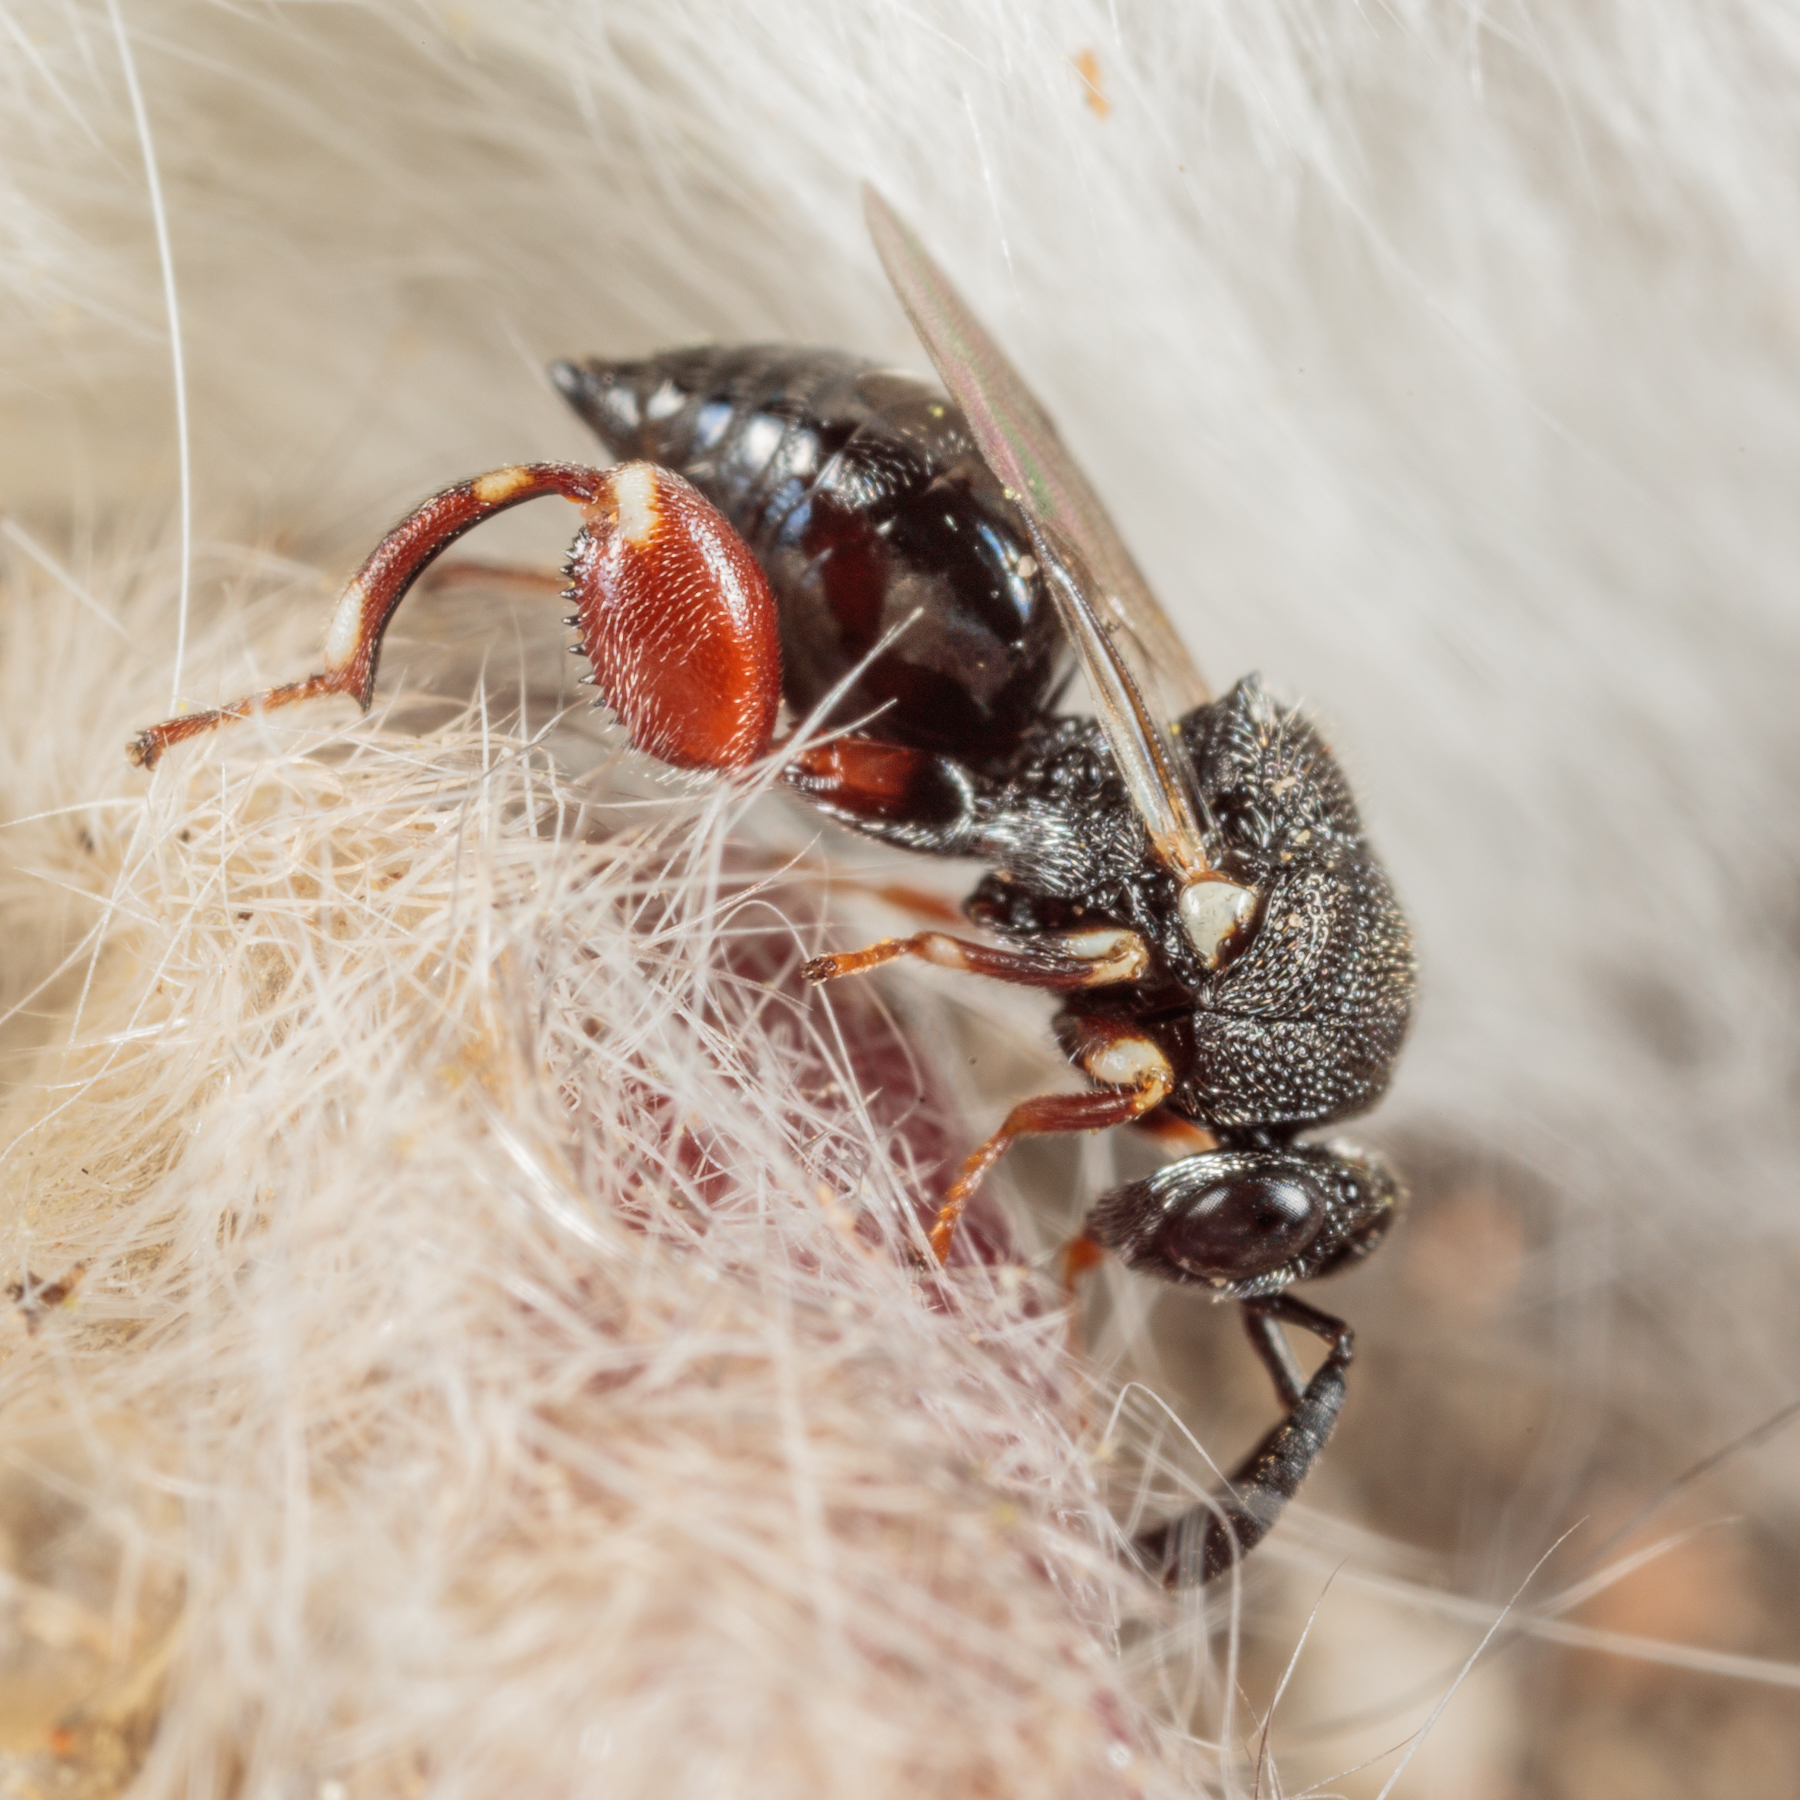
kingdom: Animalia
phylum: Arthropoda
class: Insecta
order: Hymenoptera
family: Chalcididae
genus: Brachymeria
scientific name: Brachymeria podagrica
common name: Chalcid wasp
